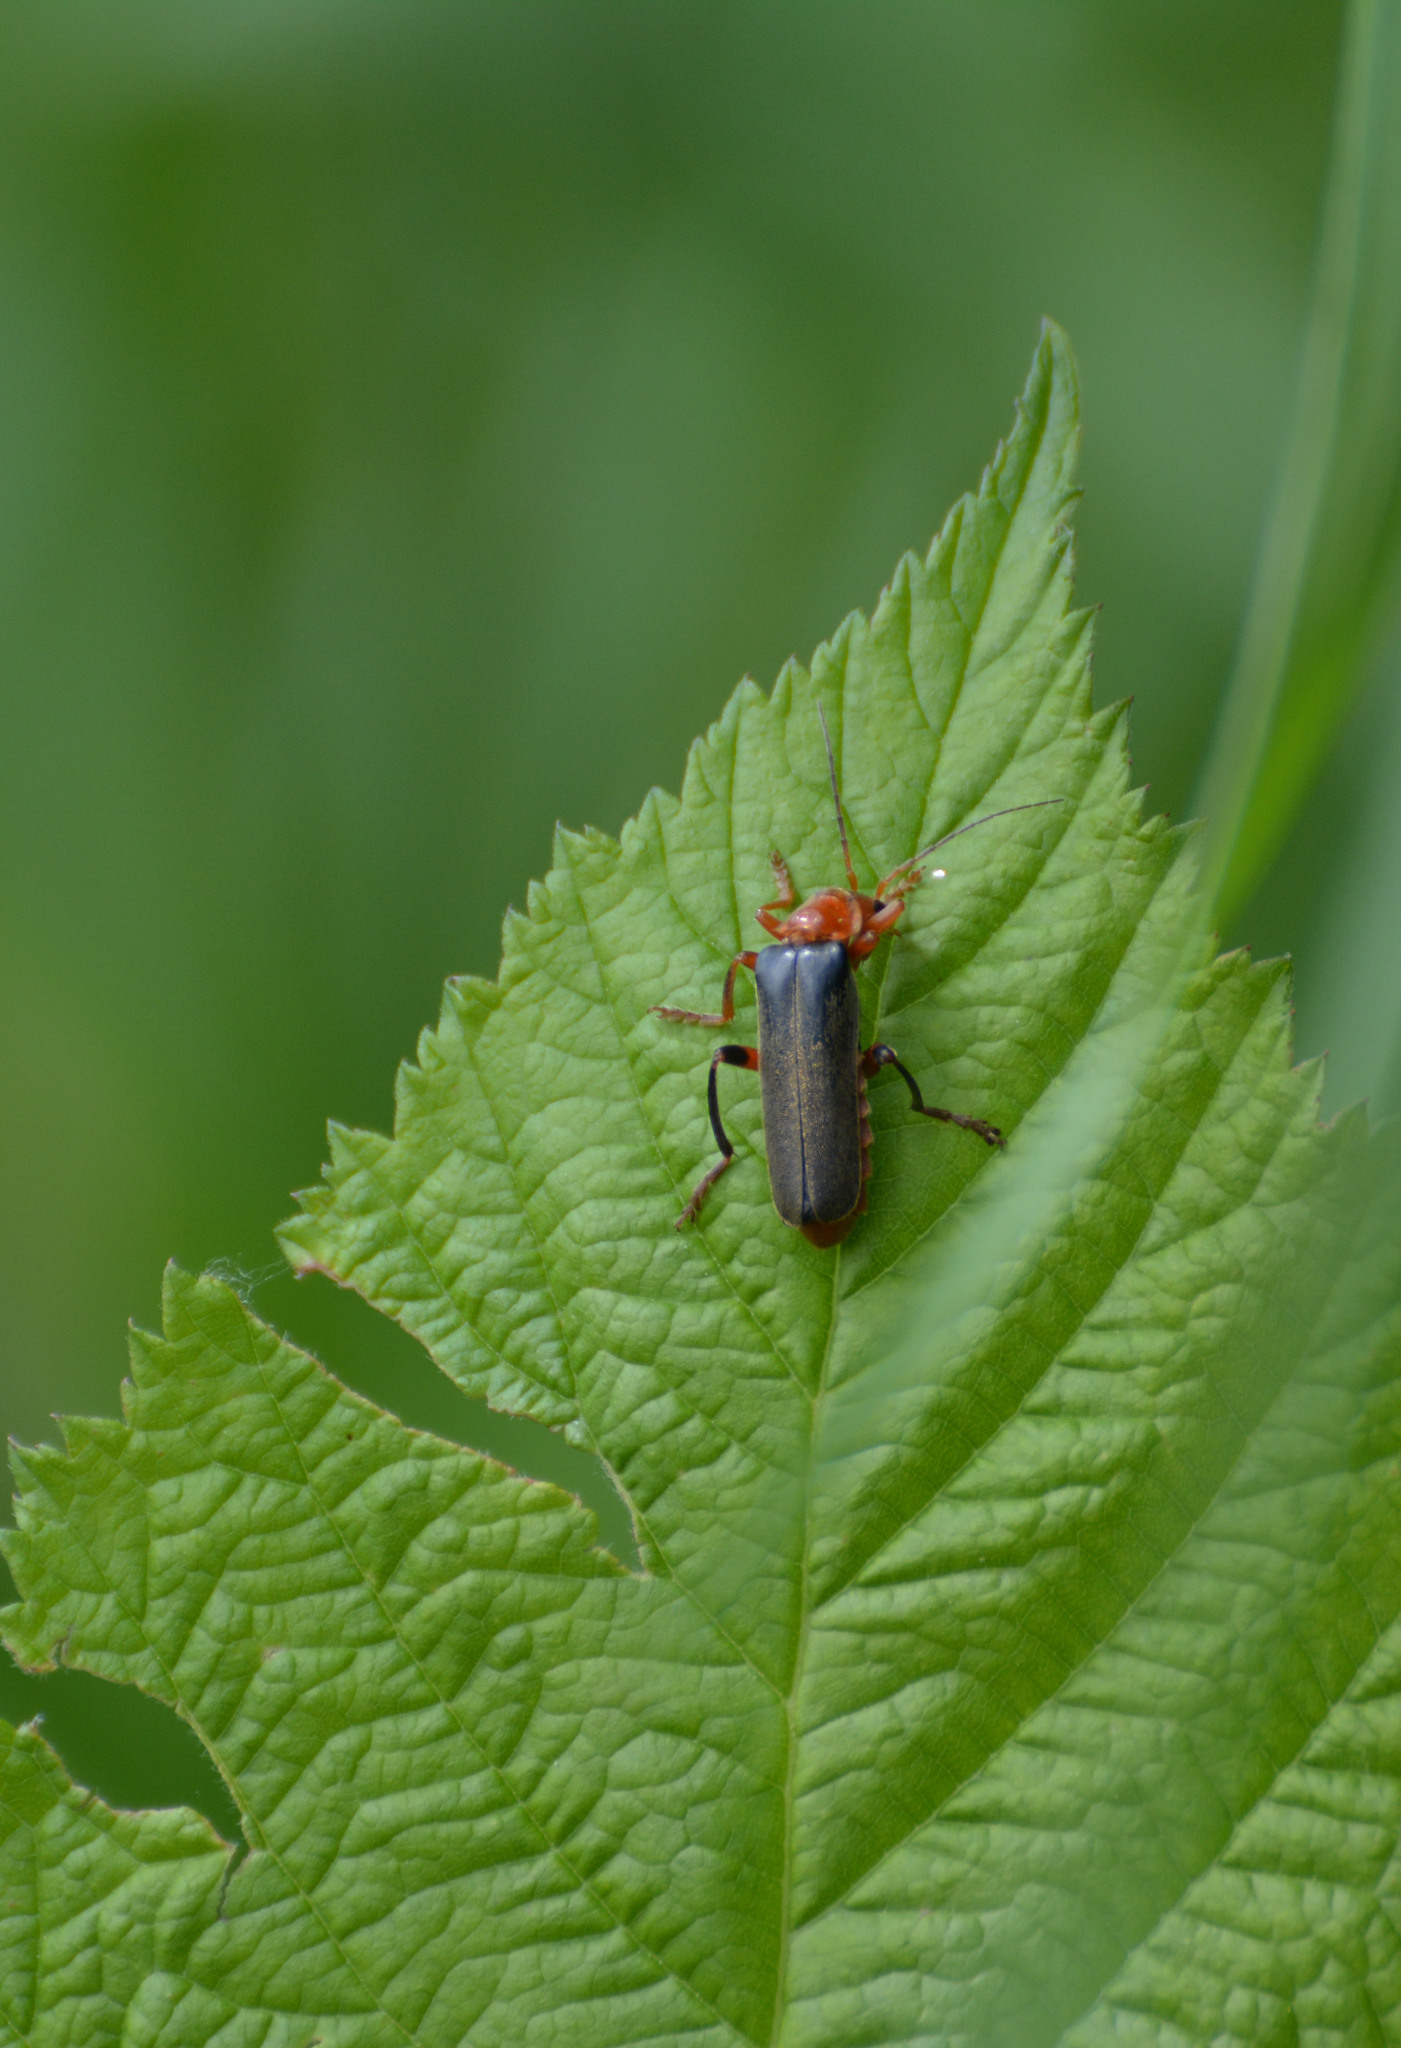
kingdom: Animalia
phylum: Arthropoda
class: Insecta
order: Coleoptera
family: Cantharidae
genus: Cantharis
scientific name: Cantharis livida
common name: Livid soldier beetle
